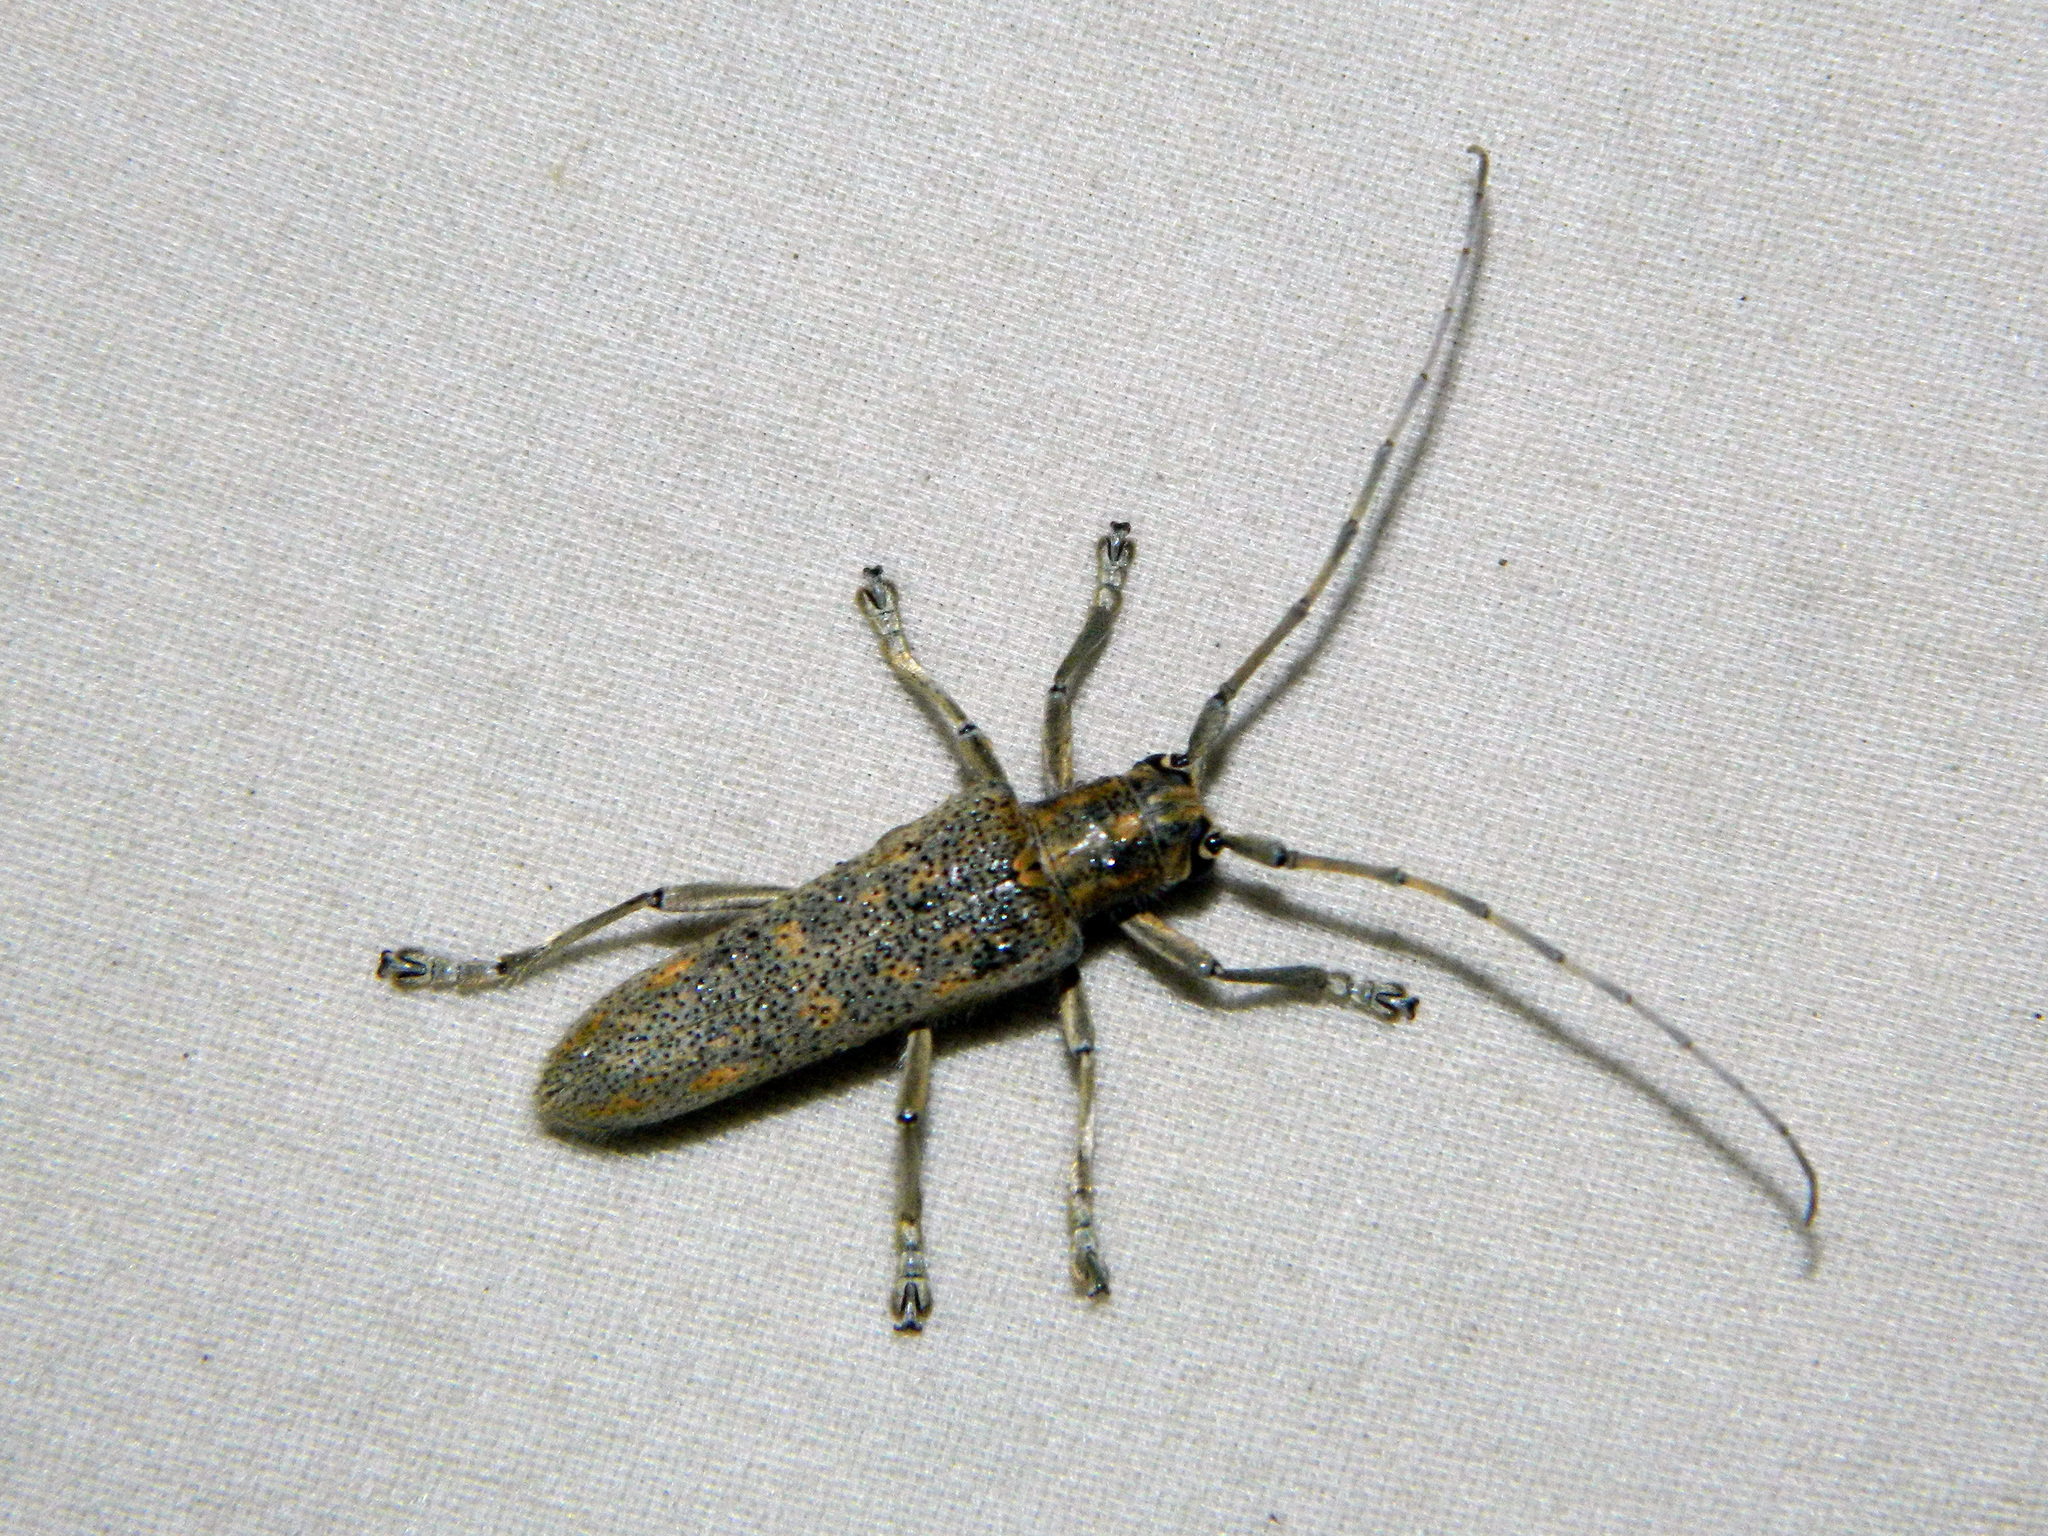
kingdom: Animalia
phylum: Arthropoda
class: Insecta
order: Coleoptera
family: Cerambycidae
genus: Saperda
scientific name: Saperda calcarata
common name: Poplar borer
